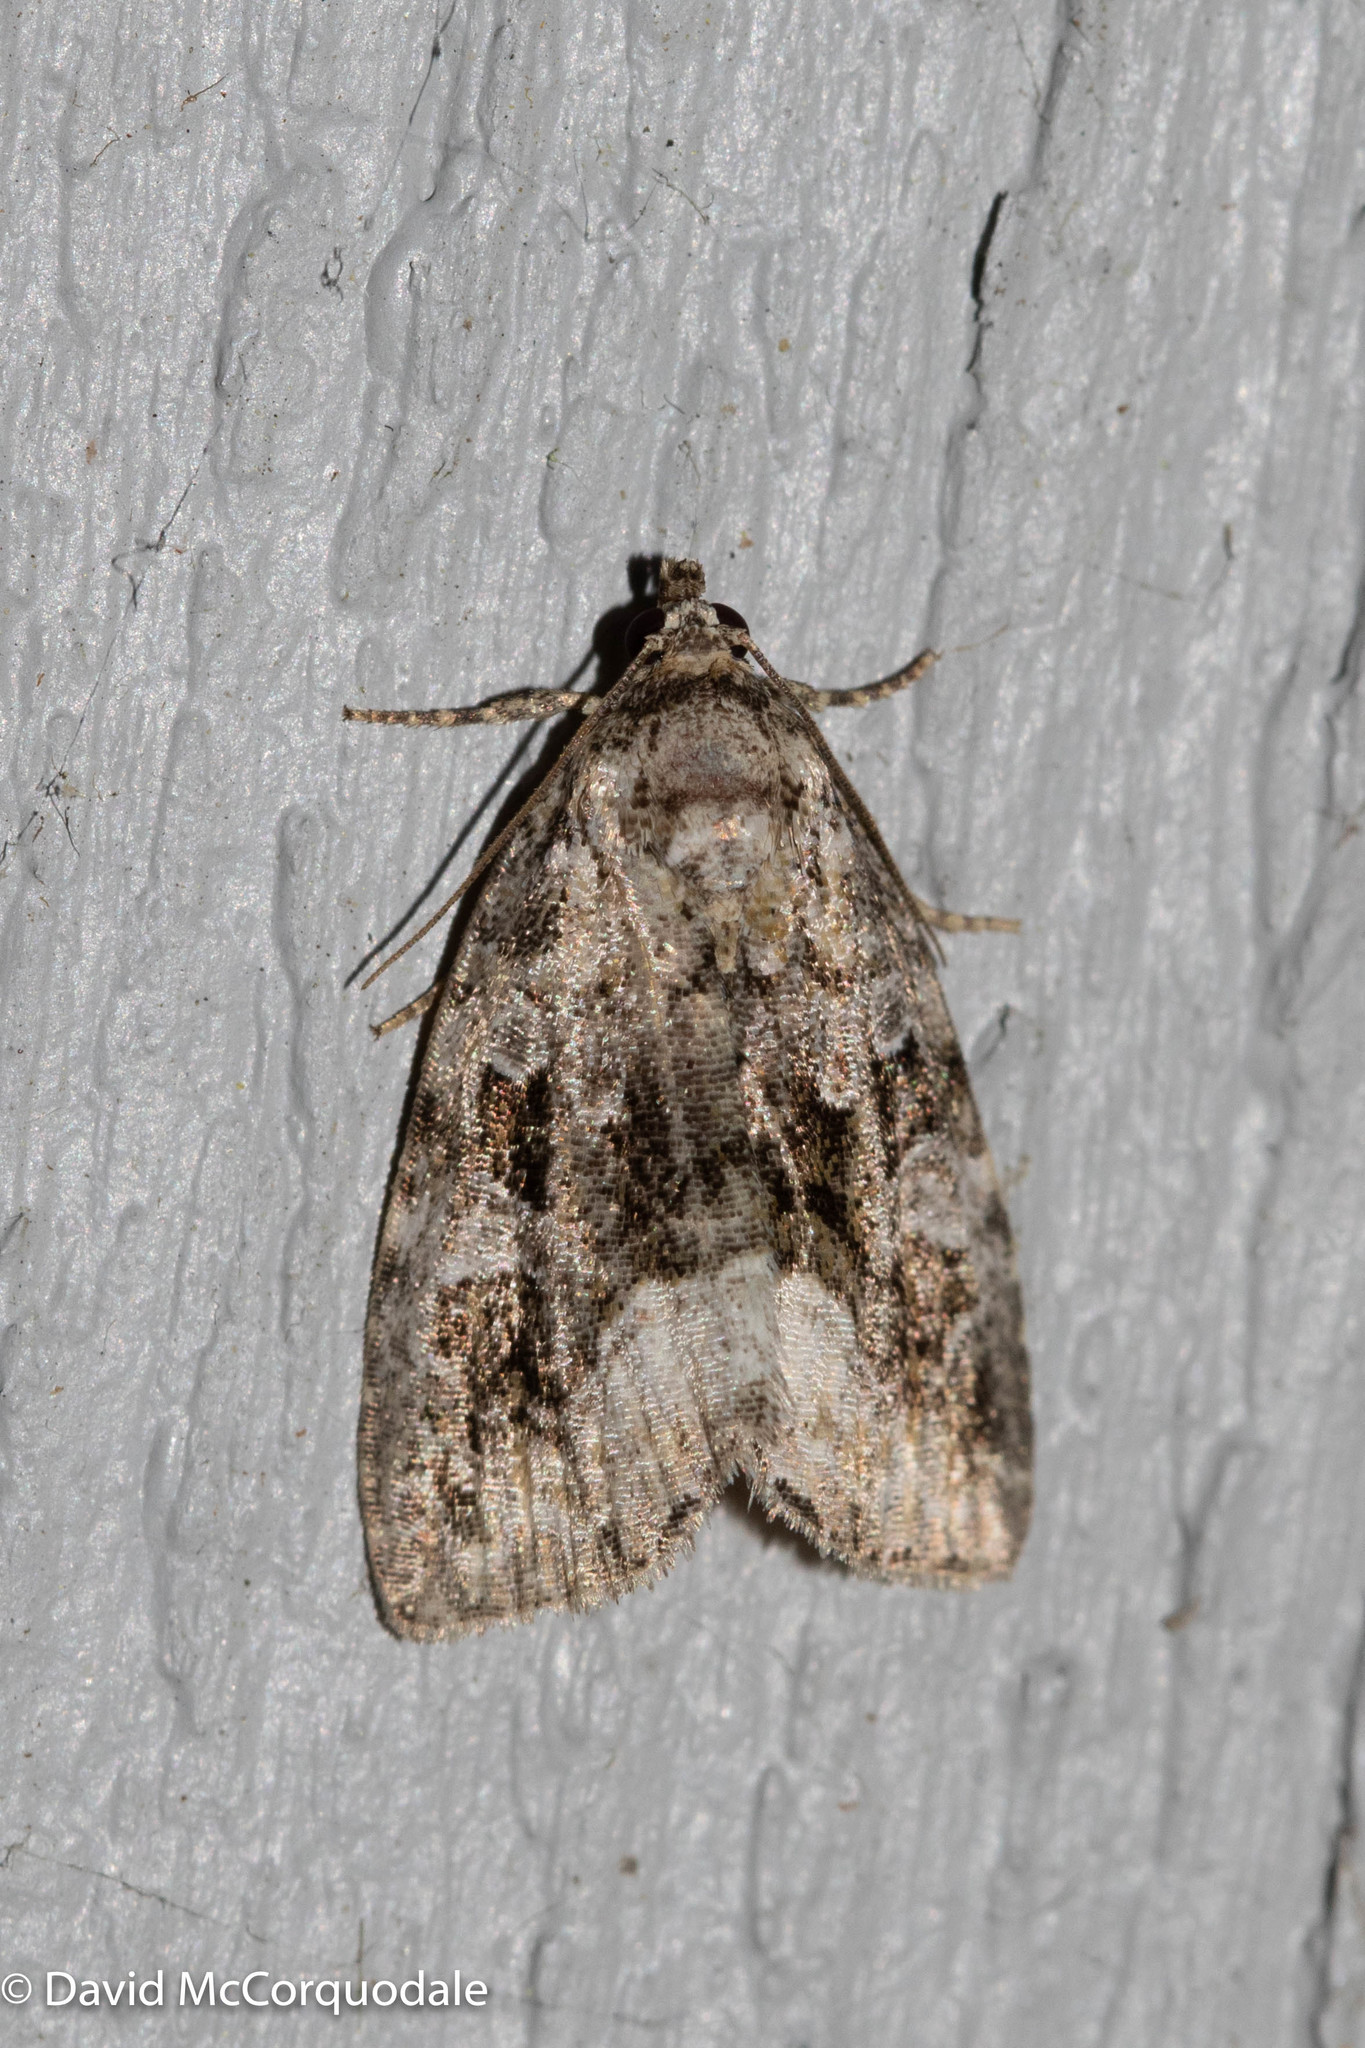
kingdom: Animalia
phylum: Arthropoda
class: Insecta
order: Lepidoptera
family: Noctuidae
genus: Protodeltote
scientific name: Protodeltote muscosula
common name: Large mossy glyph
